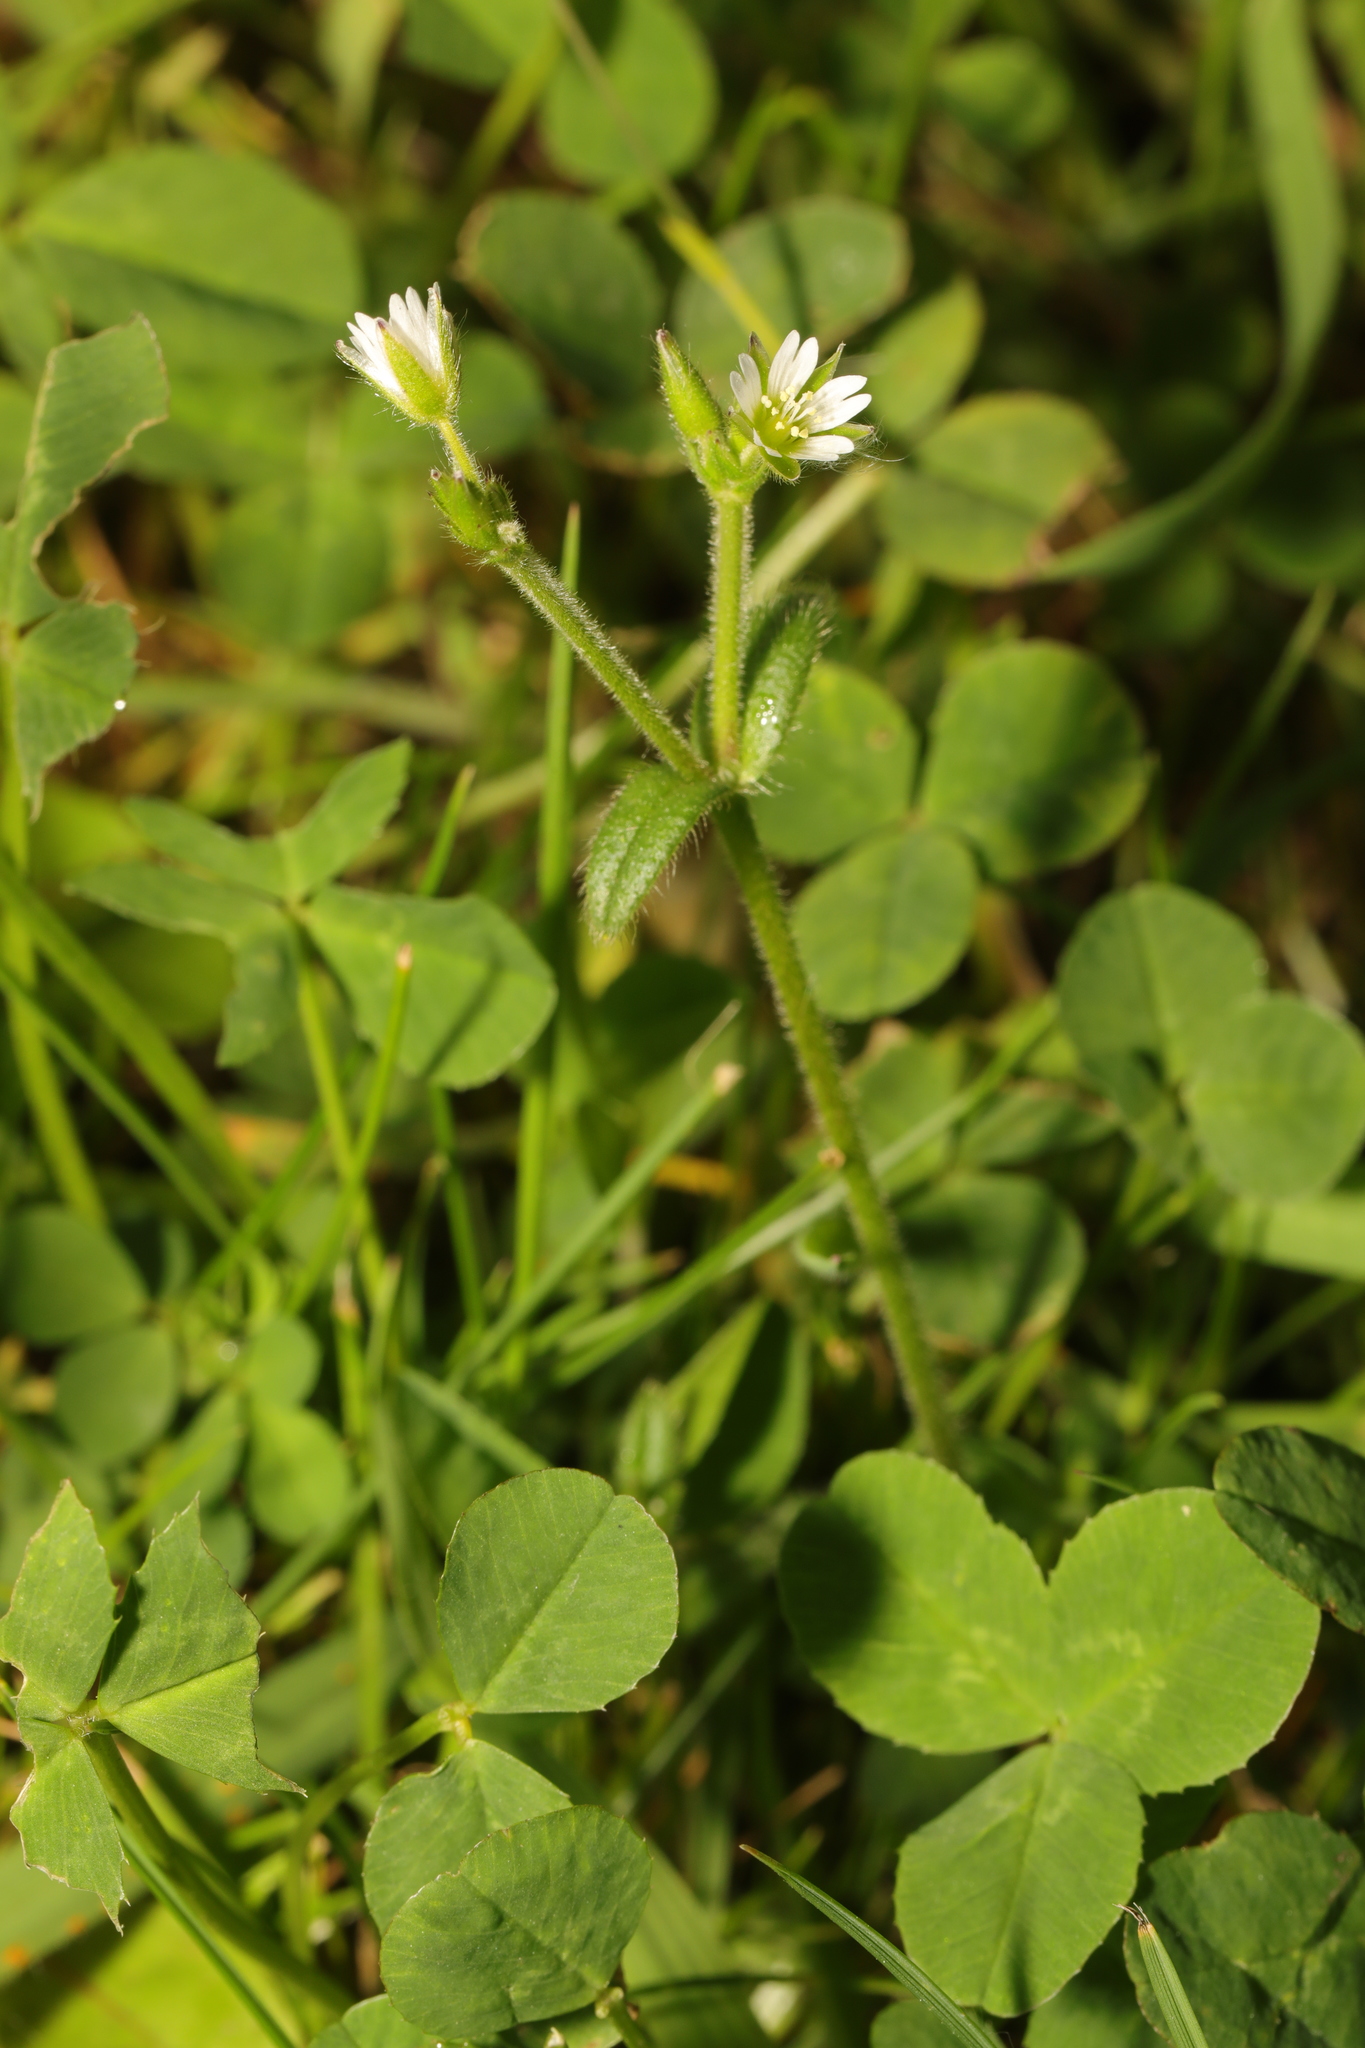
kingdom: Plantae
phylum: Tracheophyta
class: Magnoliopsida
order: Caryophyllales
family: Caryophyllaceae
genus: Cerastium
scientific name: Cerastium fontanum
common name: Common mouse-ear
